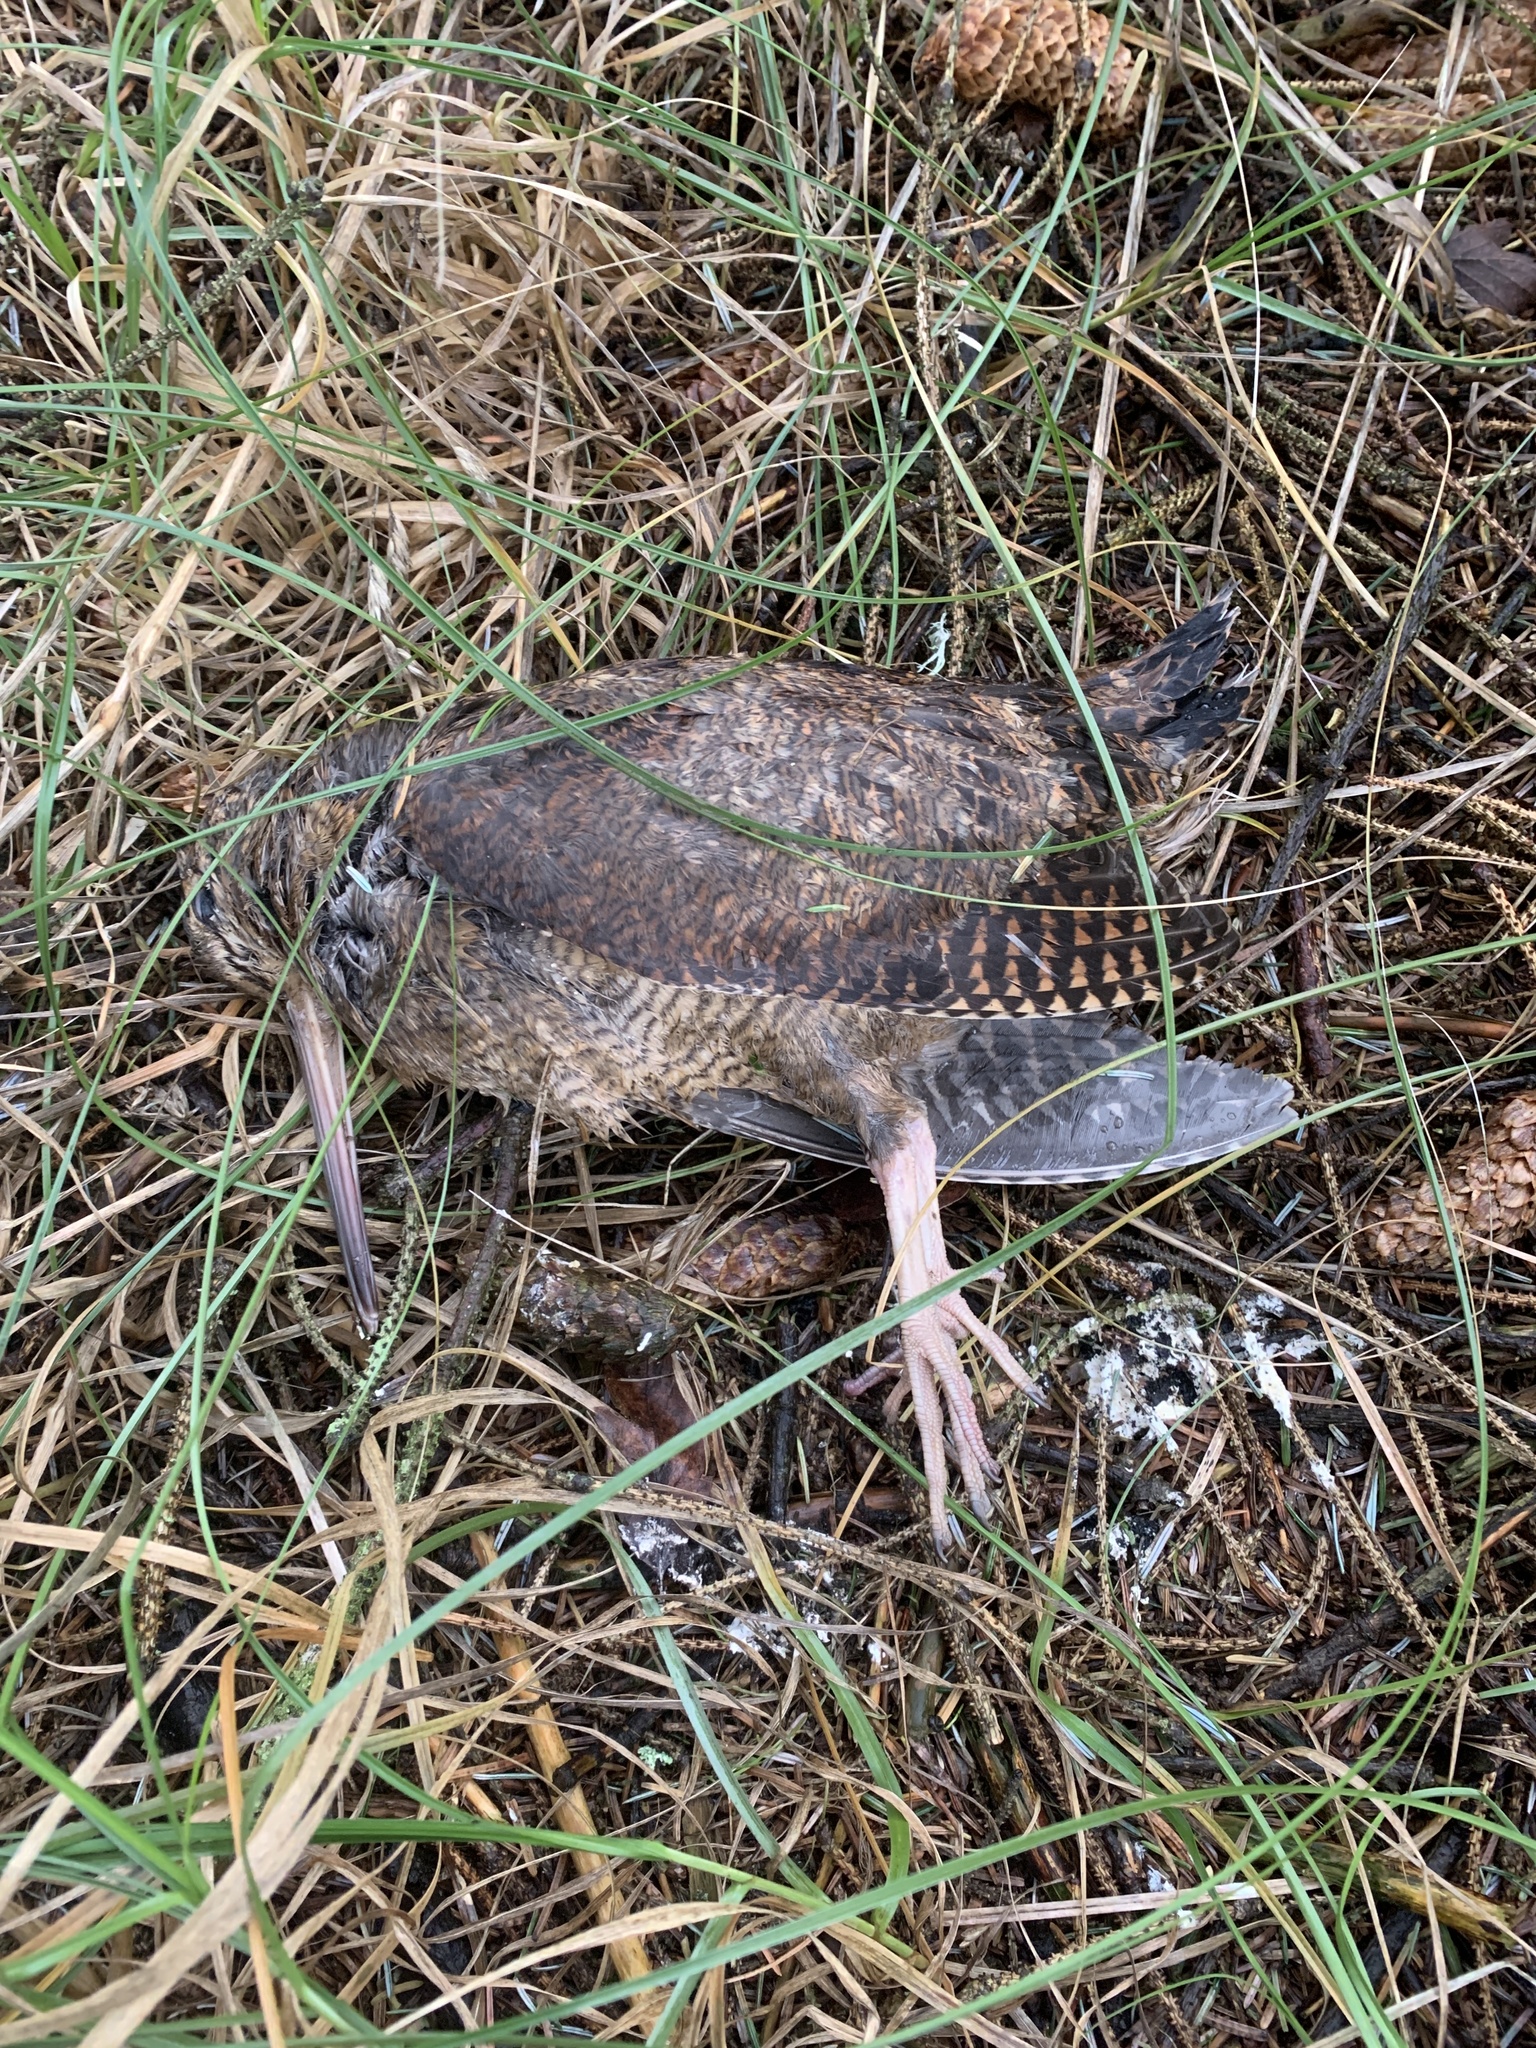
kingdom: Animalia
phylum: Chordata
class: Aves
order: Charadriiformes
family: Scolopacidae
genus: Scolopax
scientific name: Scolopax rusticola
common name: Eurasian woodcock
